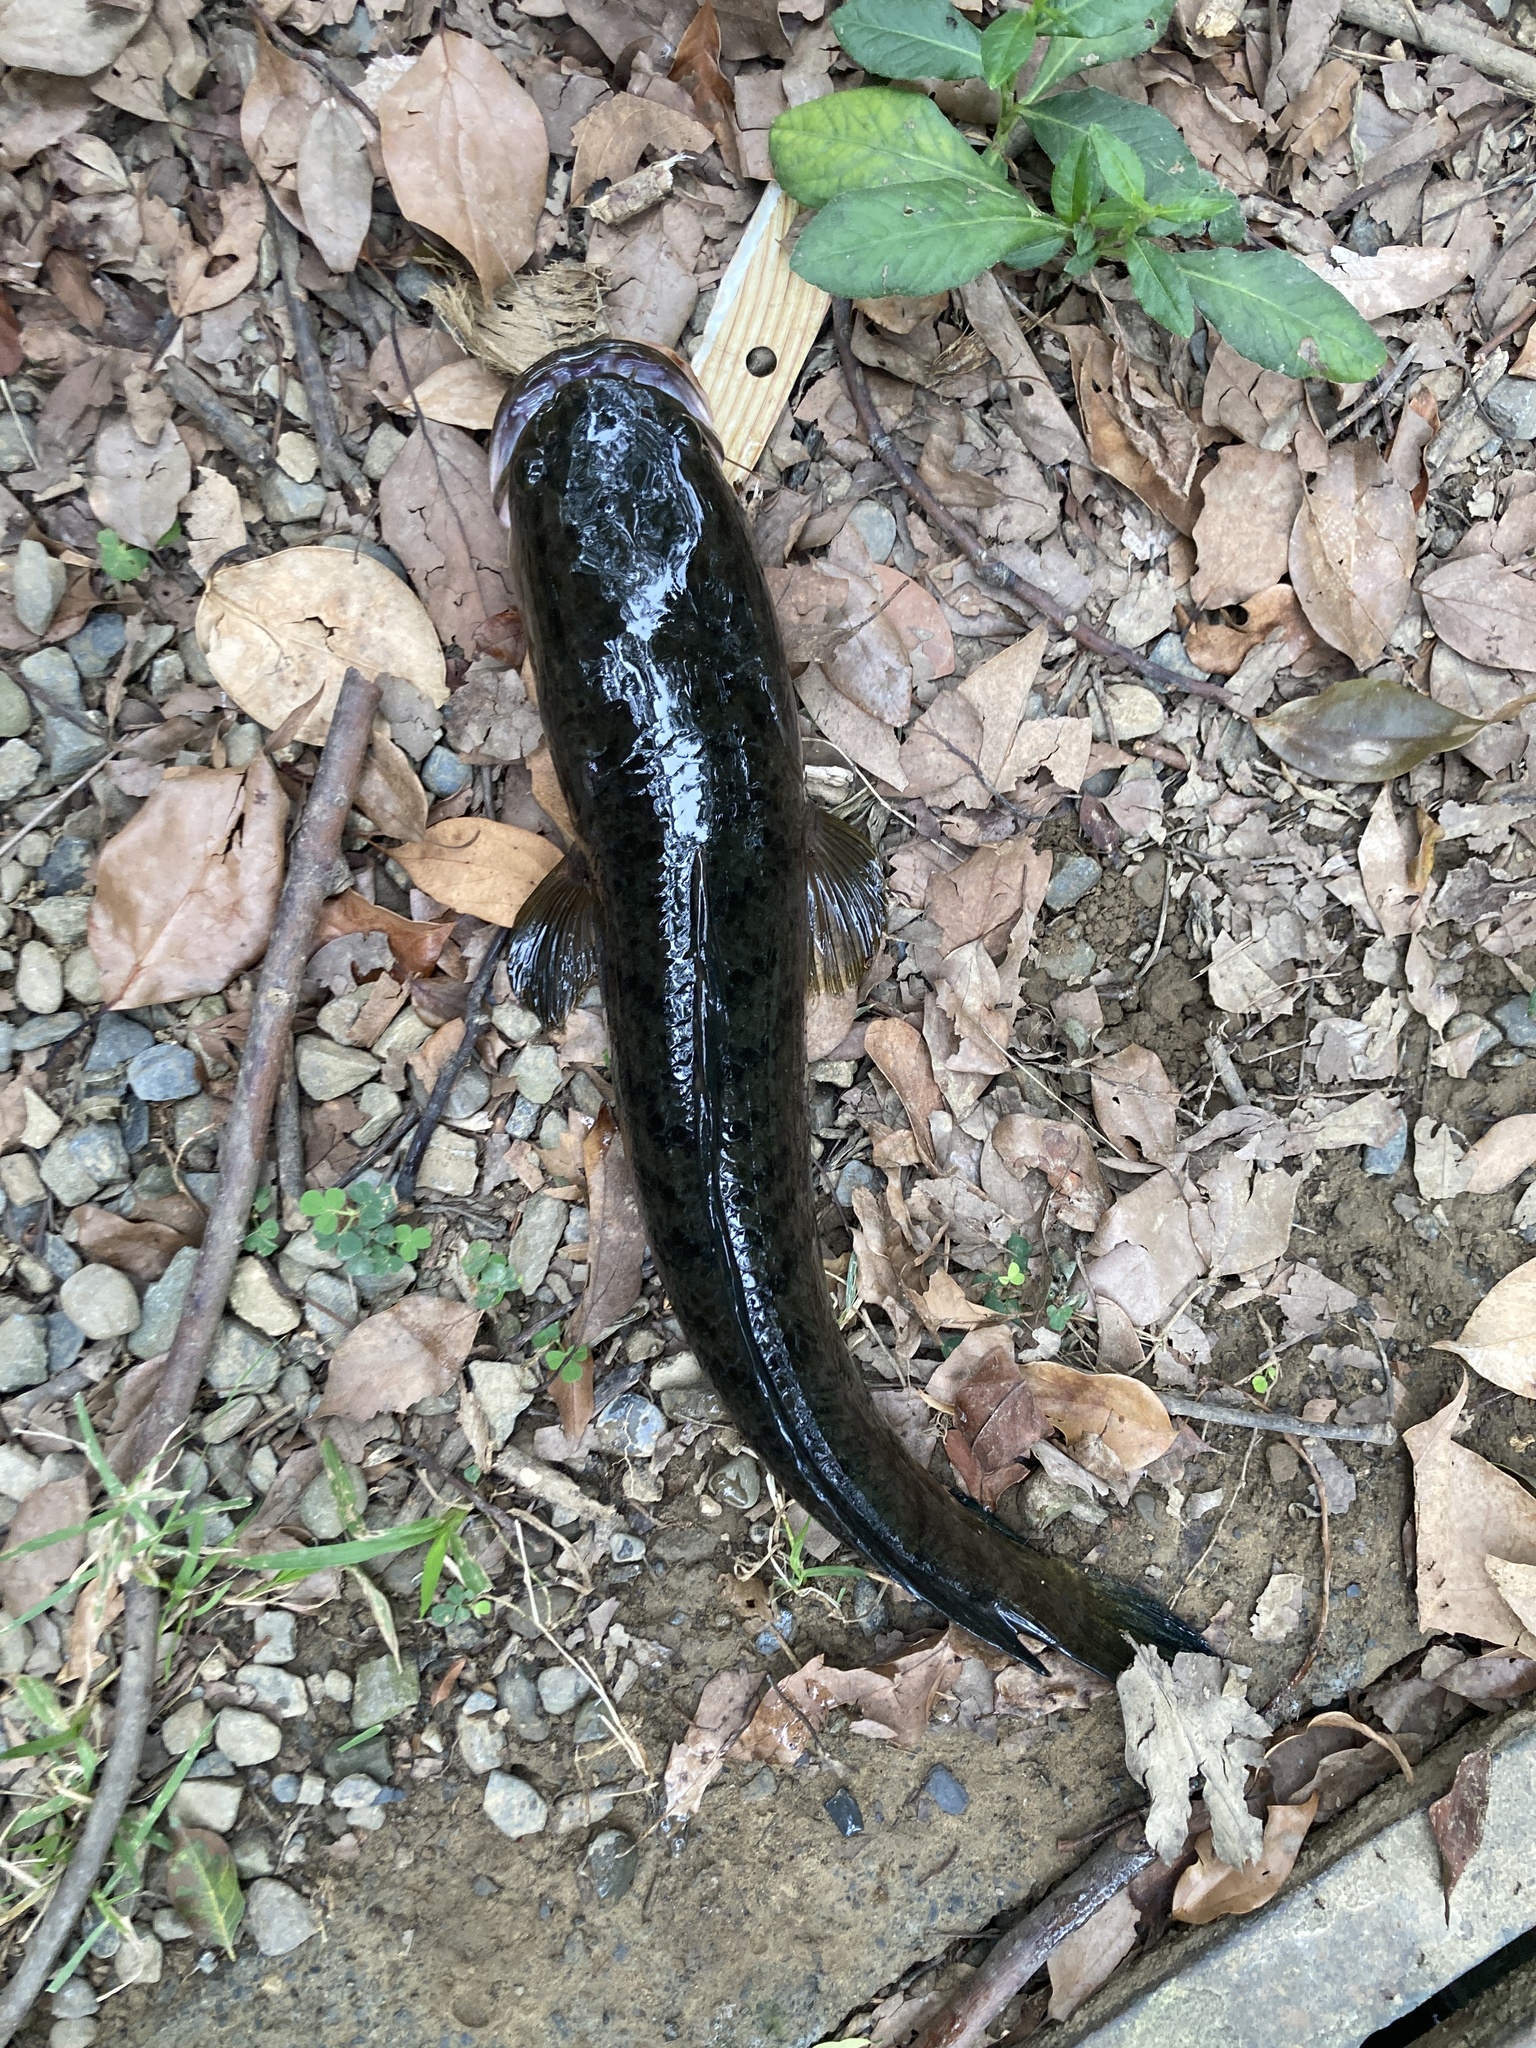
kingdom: Animalia
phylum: Chordata
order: Perciformes
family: Channidae
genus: Channa
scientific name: Channa striata
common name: Striped snakehead
